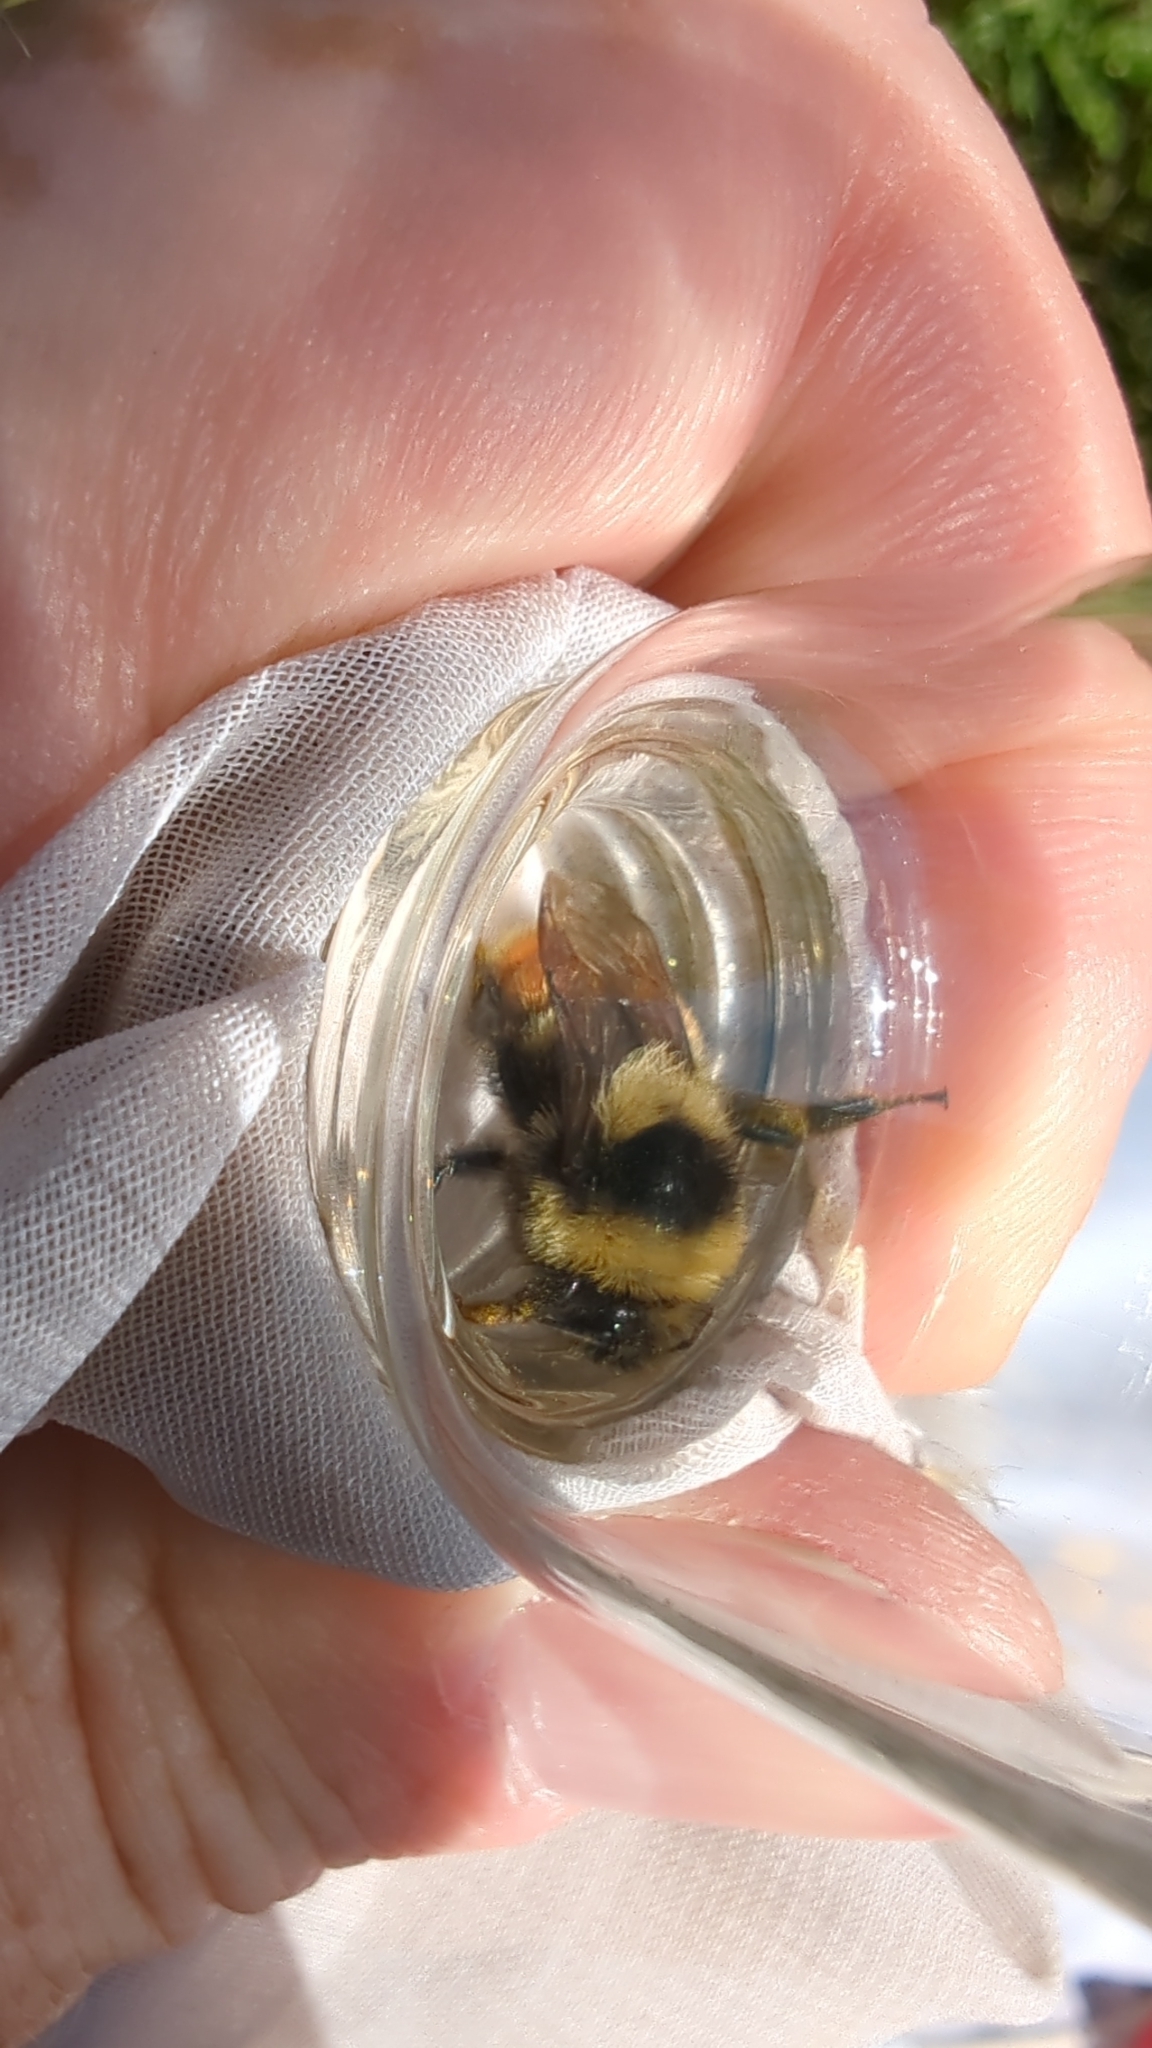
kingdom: Animalia
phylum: Arthropoda
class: Insecta
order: Hymenoptera
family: Apidae
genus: Bombus
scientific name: Bombus rufocinctus
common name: Red-belted bumble bee
